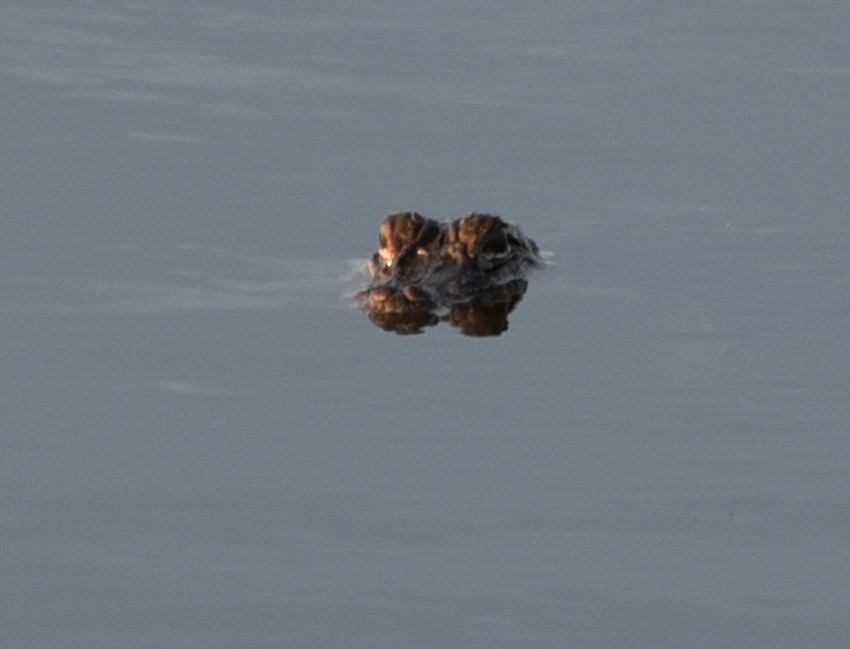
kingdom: Animalia
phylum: Chordata
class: Crocodylia
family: Alligatoridae
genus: Alligator
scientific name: Alligator mississippiensis
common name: American alligator
